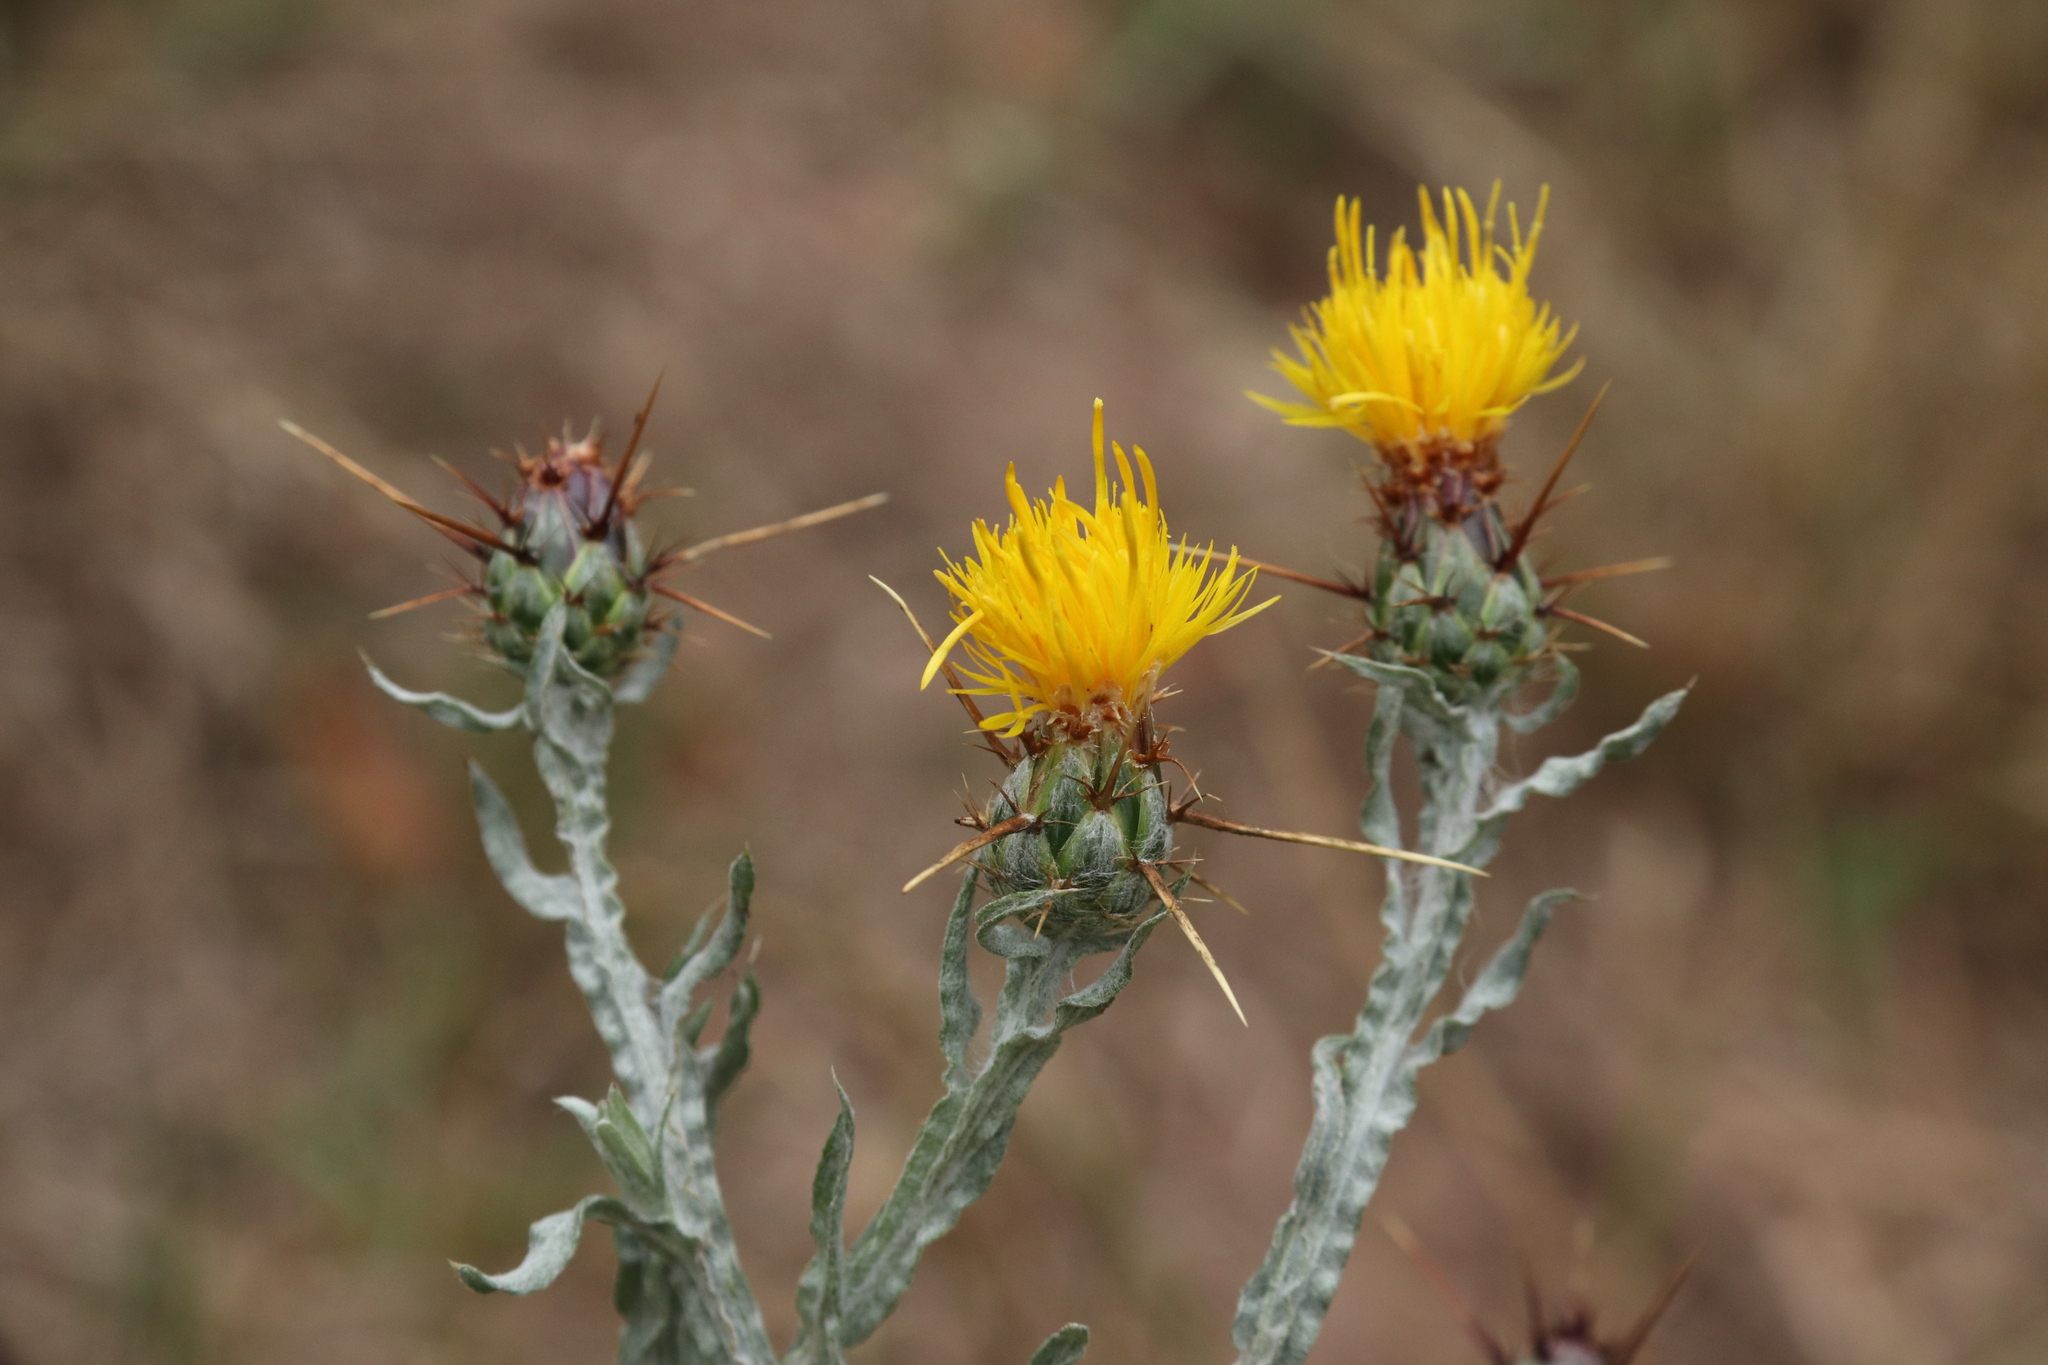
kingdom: Plantae
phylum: Tracheophyta
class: Magnoliopsida
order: Asterales
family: Asteraceae
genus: Centaurea
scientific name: Centaurea solstitialis
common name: Yellow star-thistle
